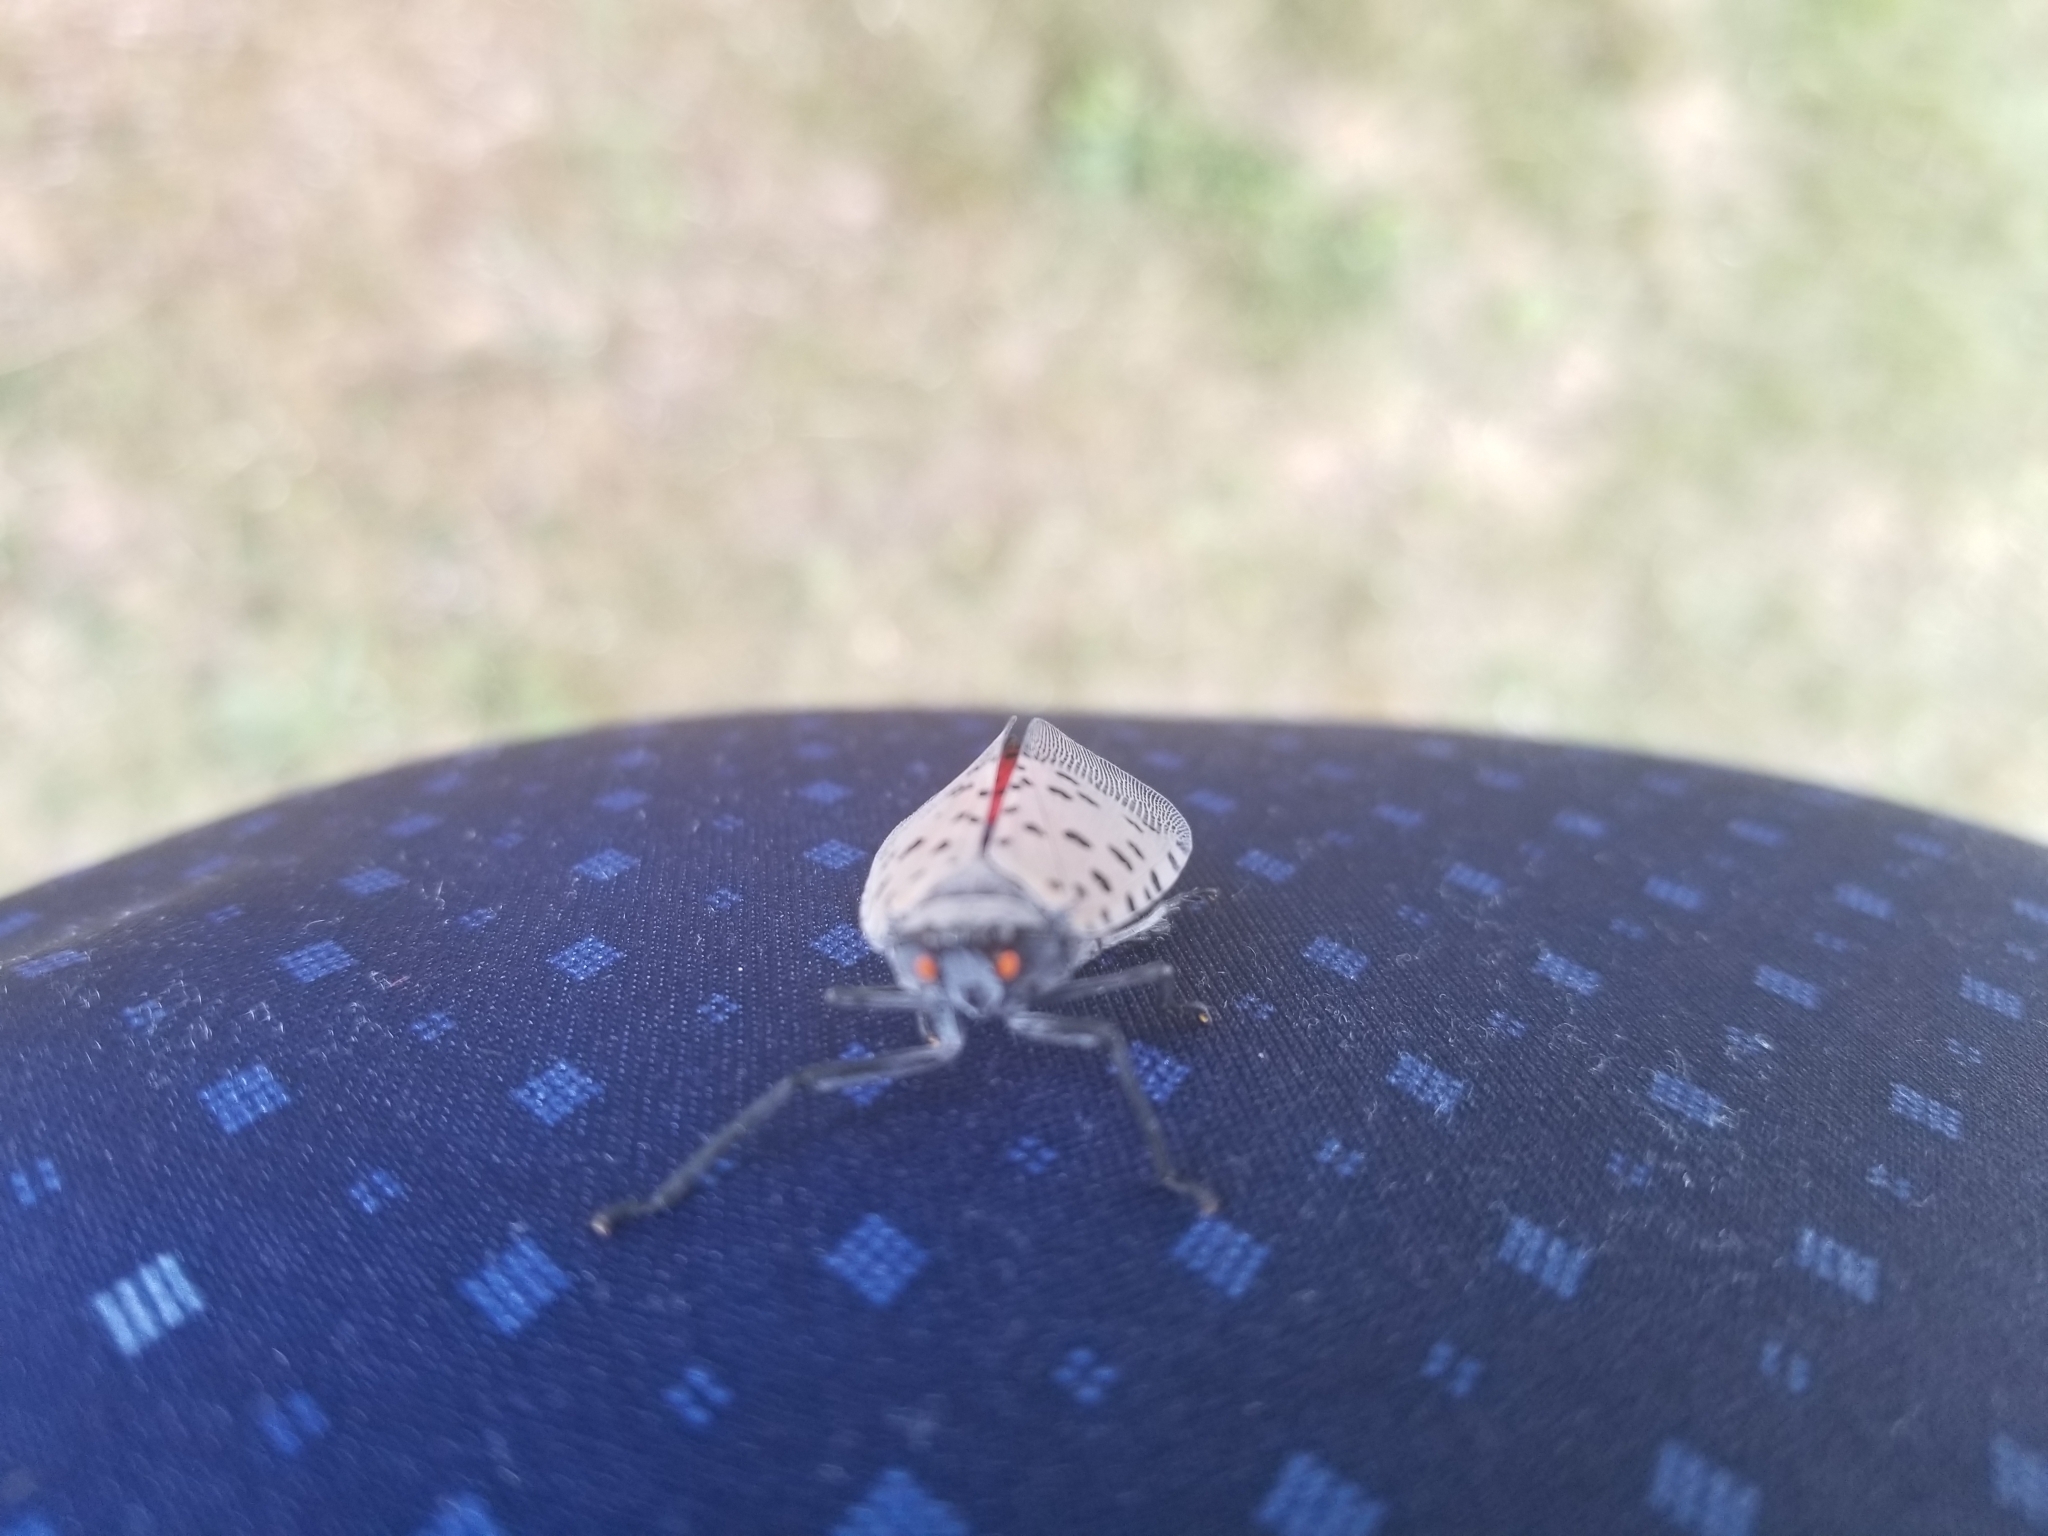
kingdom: Animalia
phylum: Arthropoda
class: Insecta
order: Hemiptera
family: Fulgoridae
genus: Lycorma
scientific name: Lycorma delicatula
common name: Spotted lanternfly
